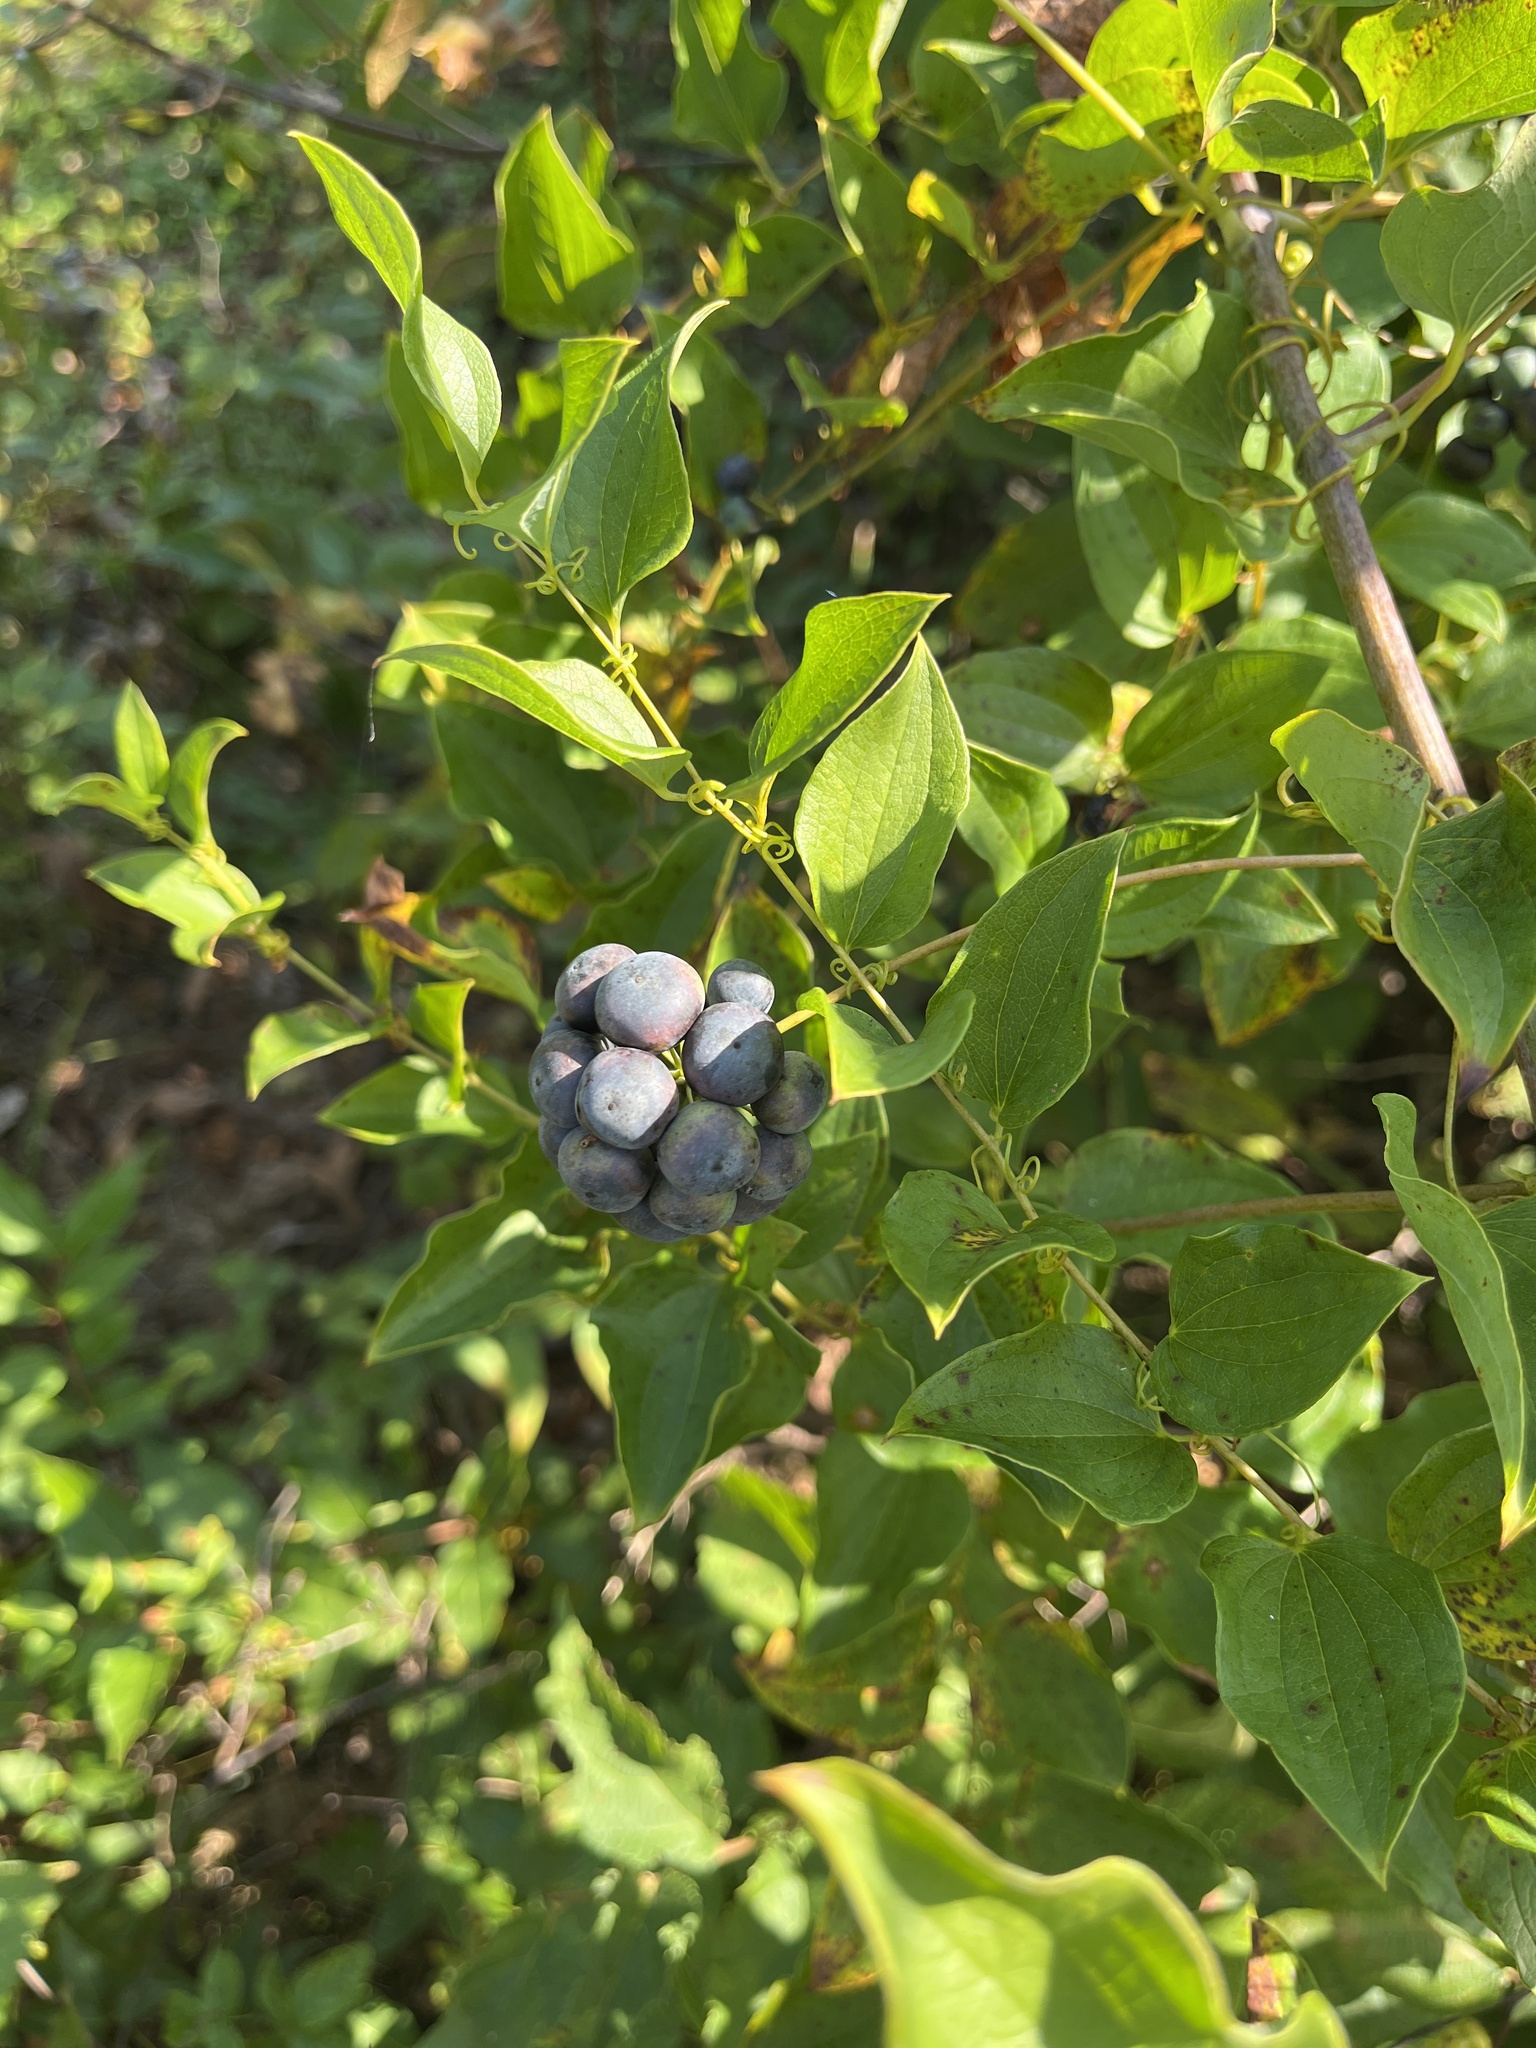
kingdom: Plantae
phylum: Tracheophyta
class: Liliopsida
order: Liliales
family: Smilacaceae
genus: Smilax
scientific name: Smilax herbacea
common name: Jacob's-ladder
